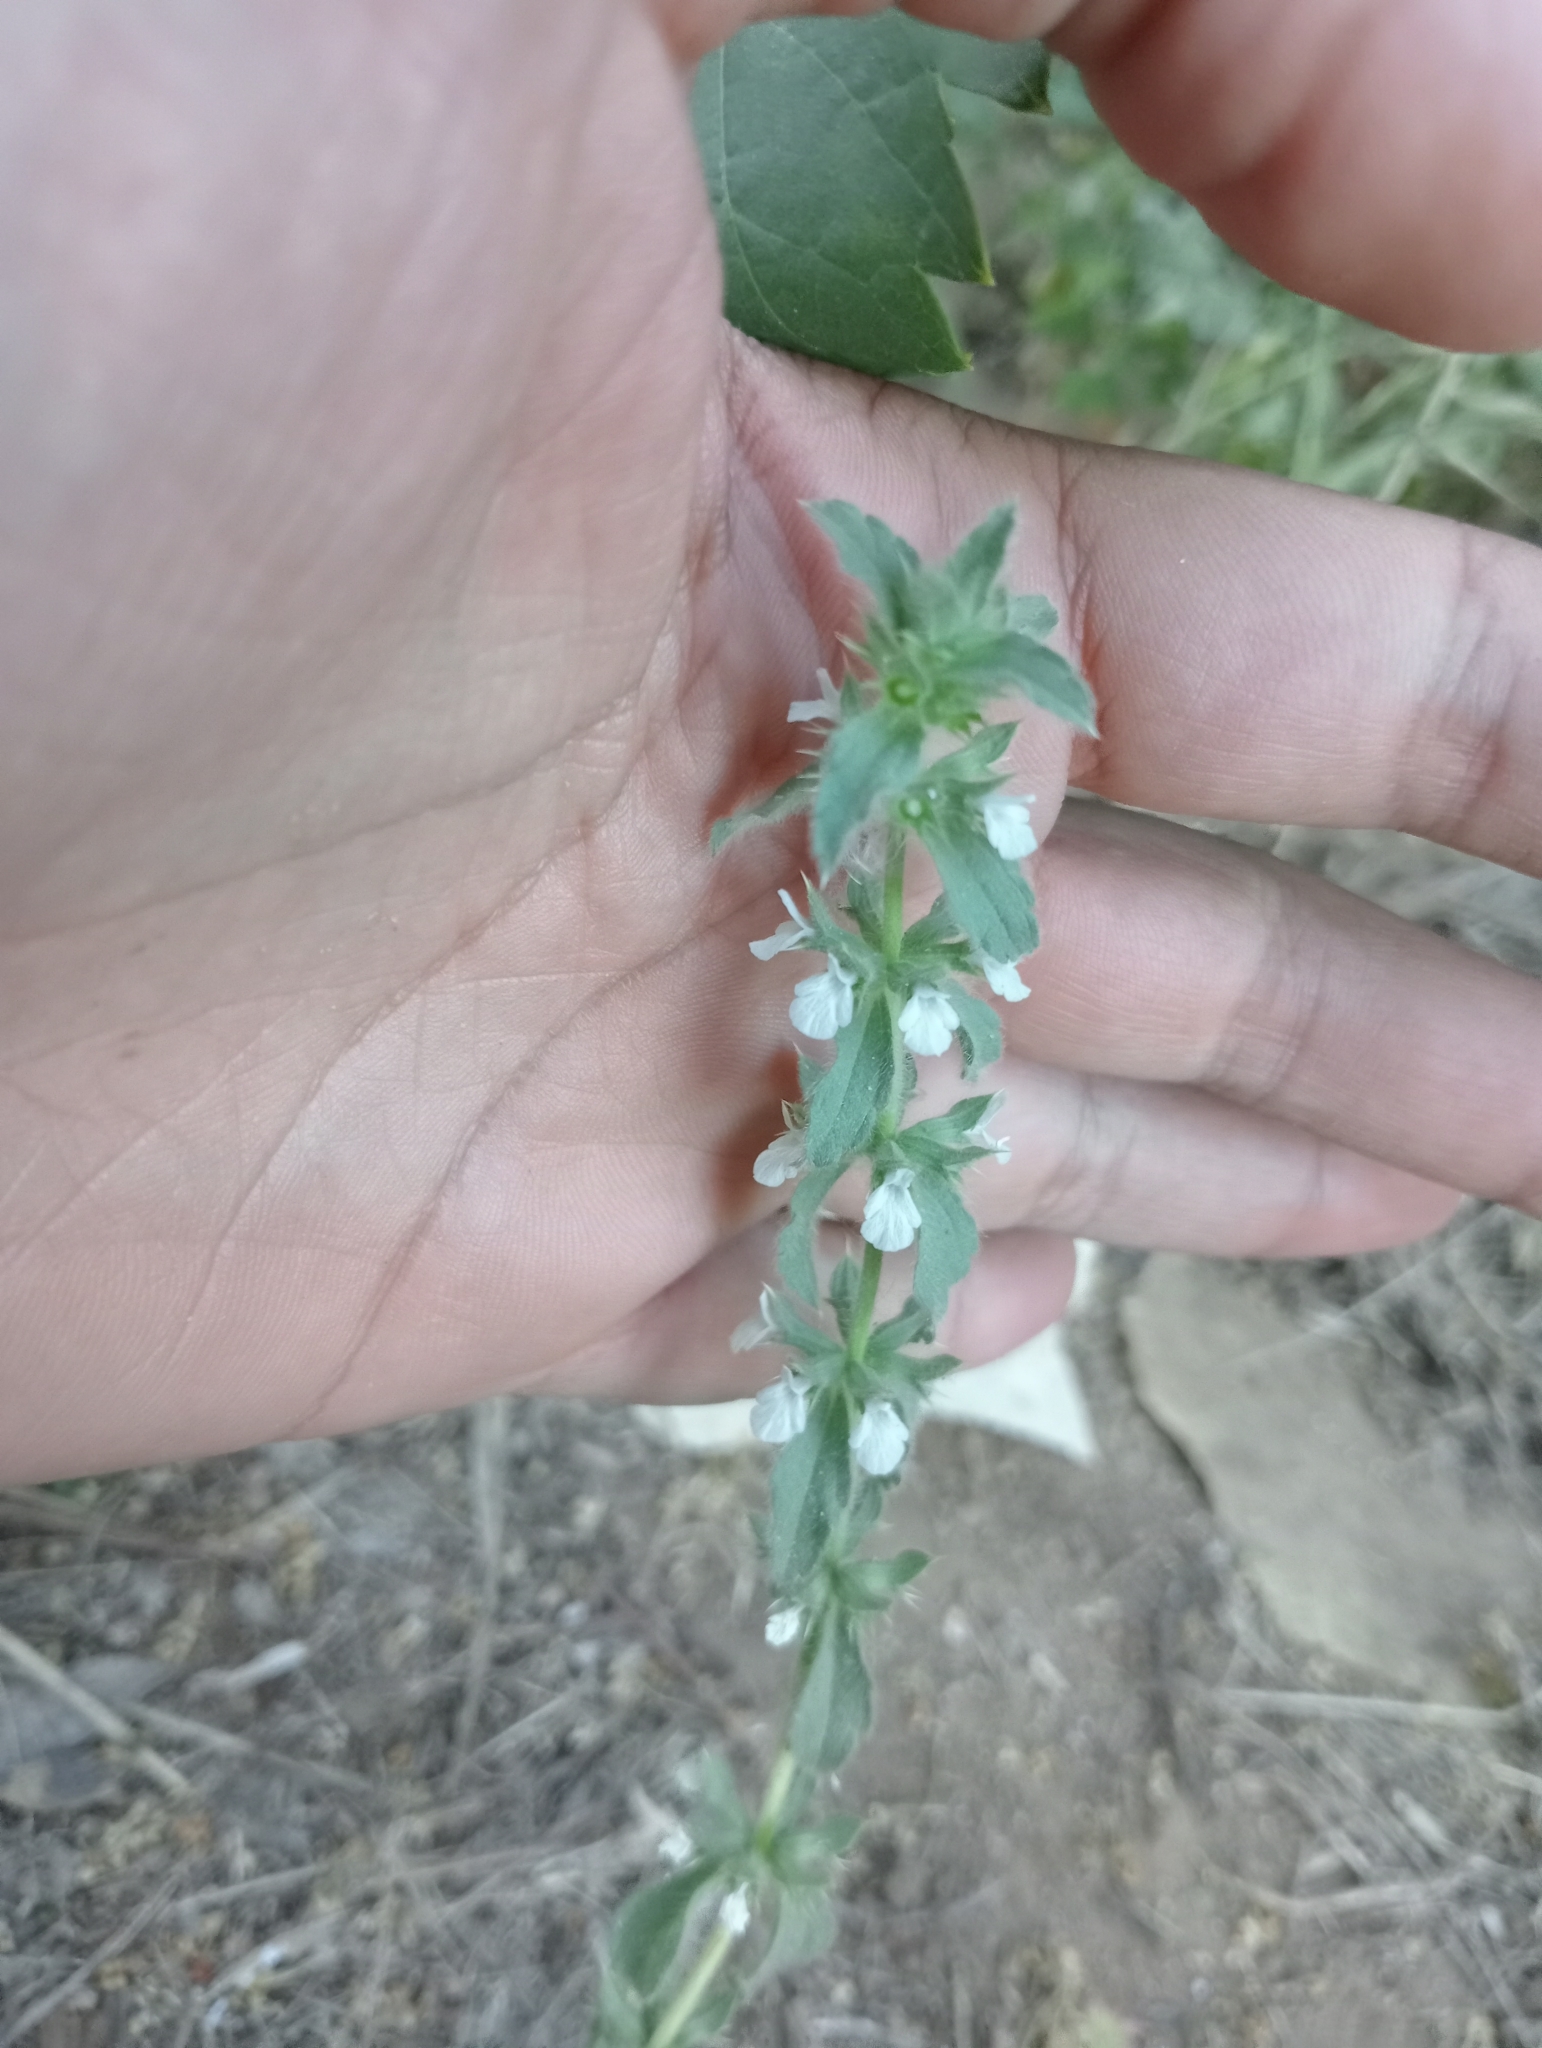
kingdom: Plantae
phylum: Tracheophyta
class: Magnoliopsida
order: Lamiales
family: Lamiaceae
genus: Sideritis
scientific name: Sideritis romana
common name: Simplebeak ironwort
